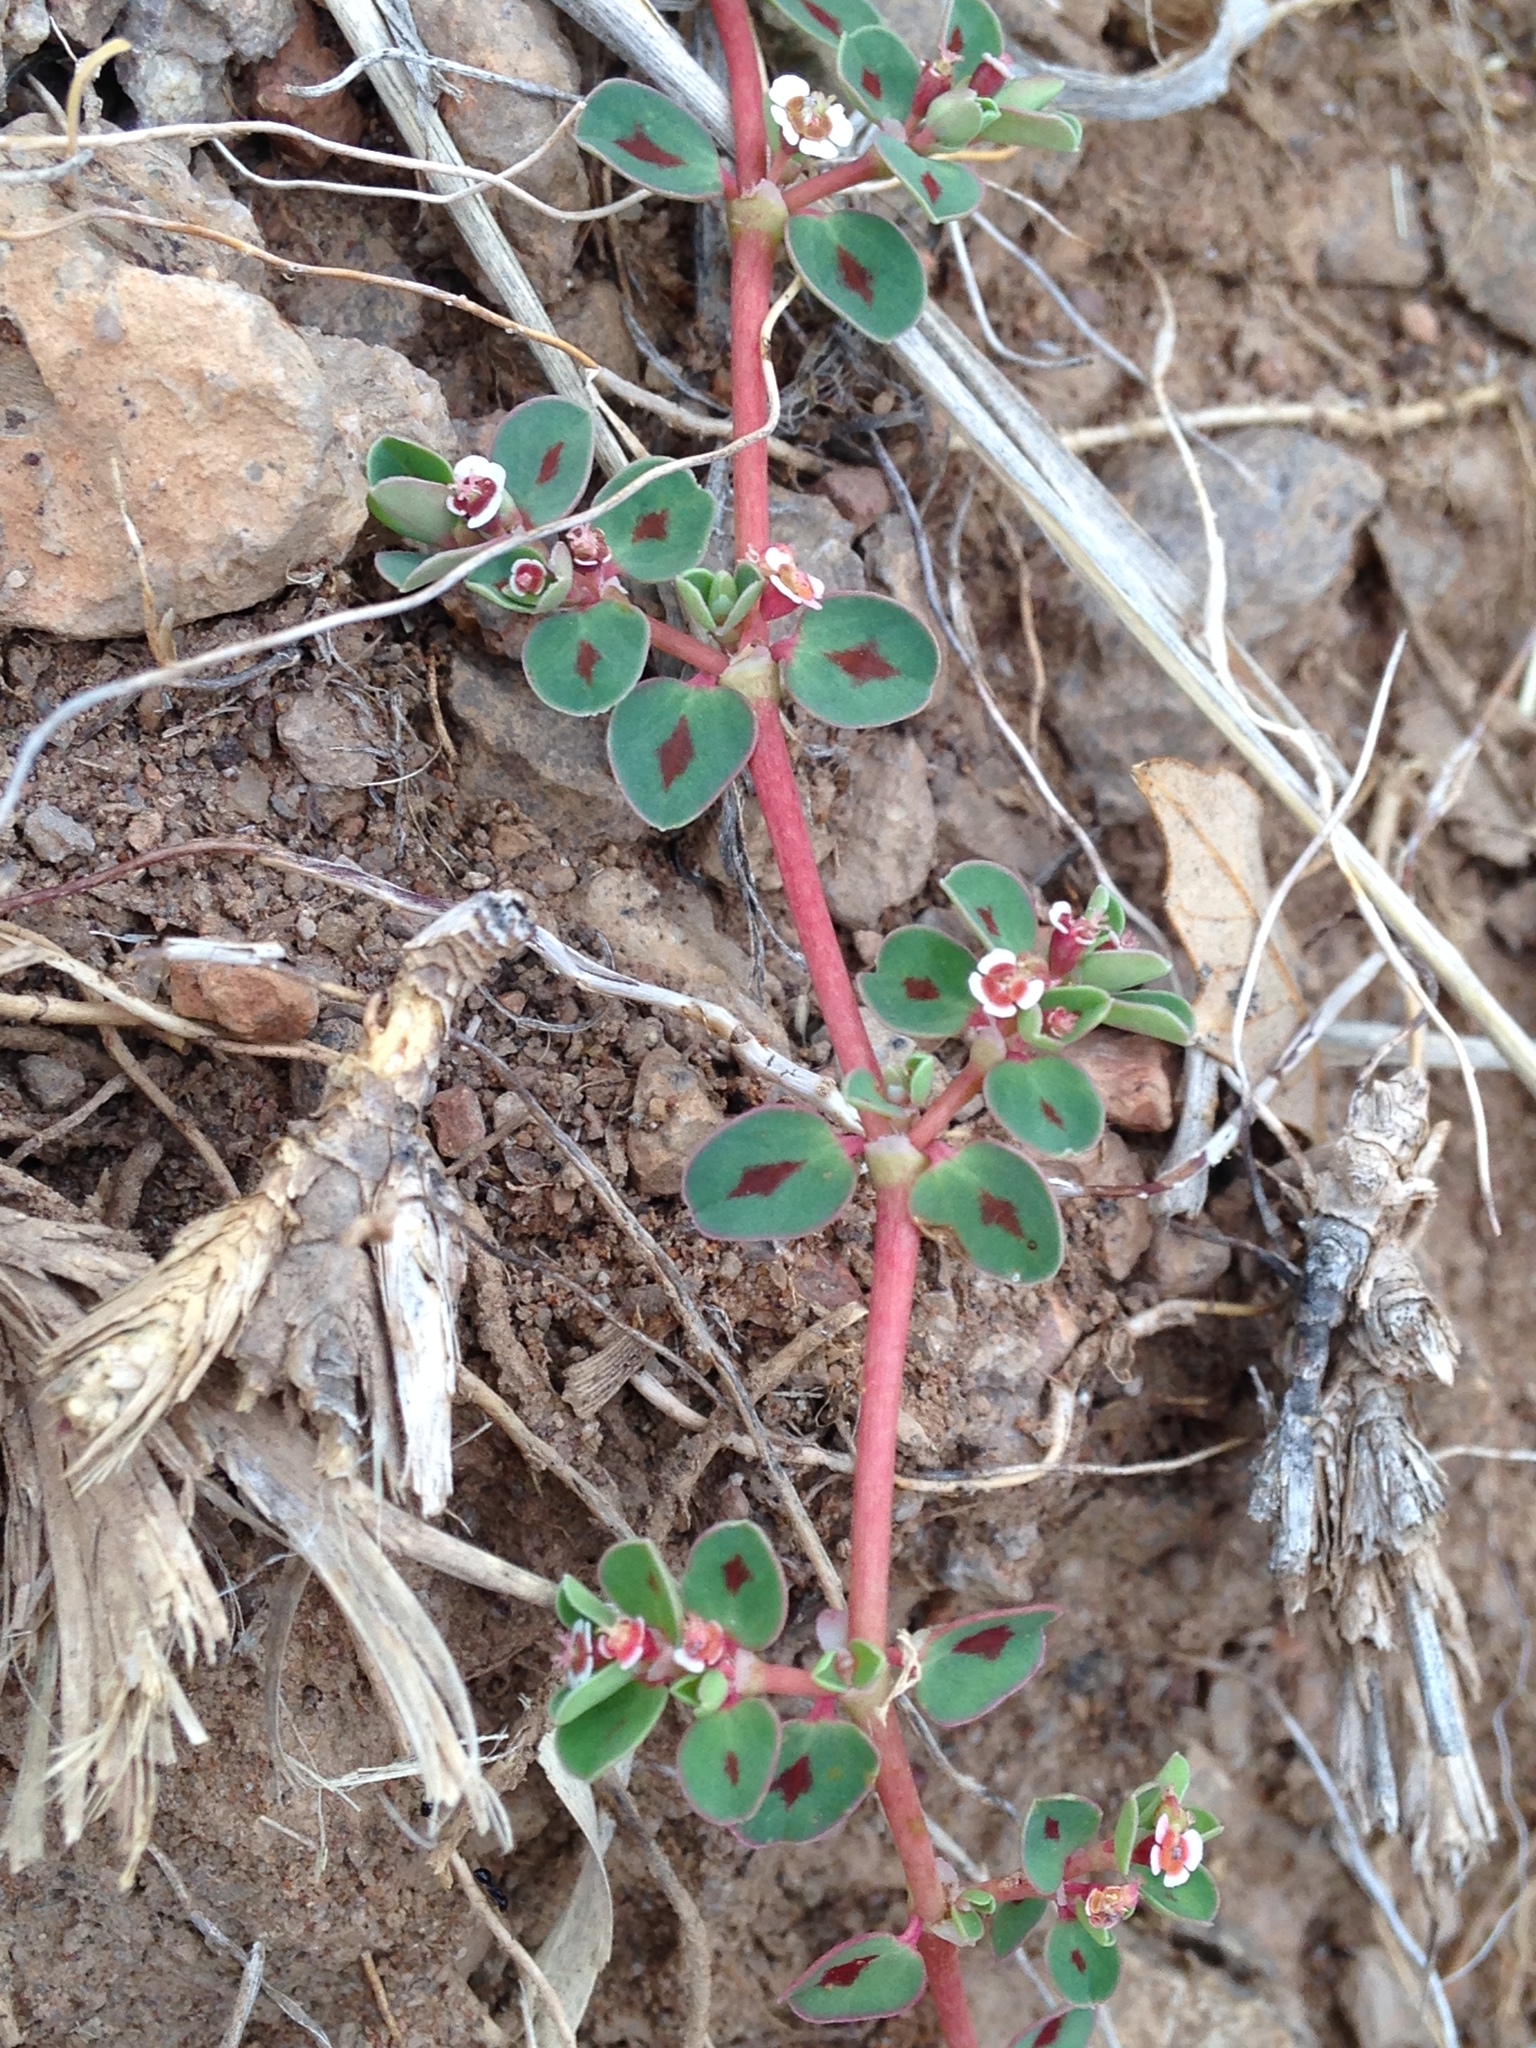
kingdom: Plantae
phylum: Tracheophyta
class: Magnoliopsida
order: Malpighiales
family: Euphorbiaceae
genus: Euphorbia
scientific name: Euphorbia albomarginata
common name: Whitemargin sandmat
